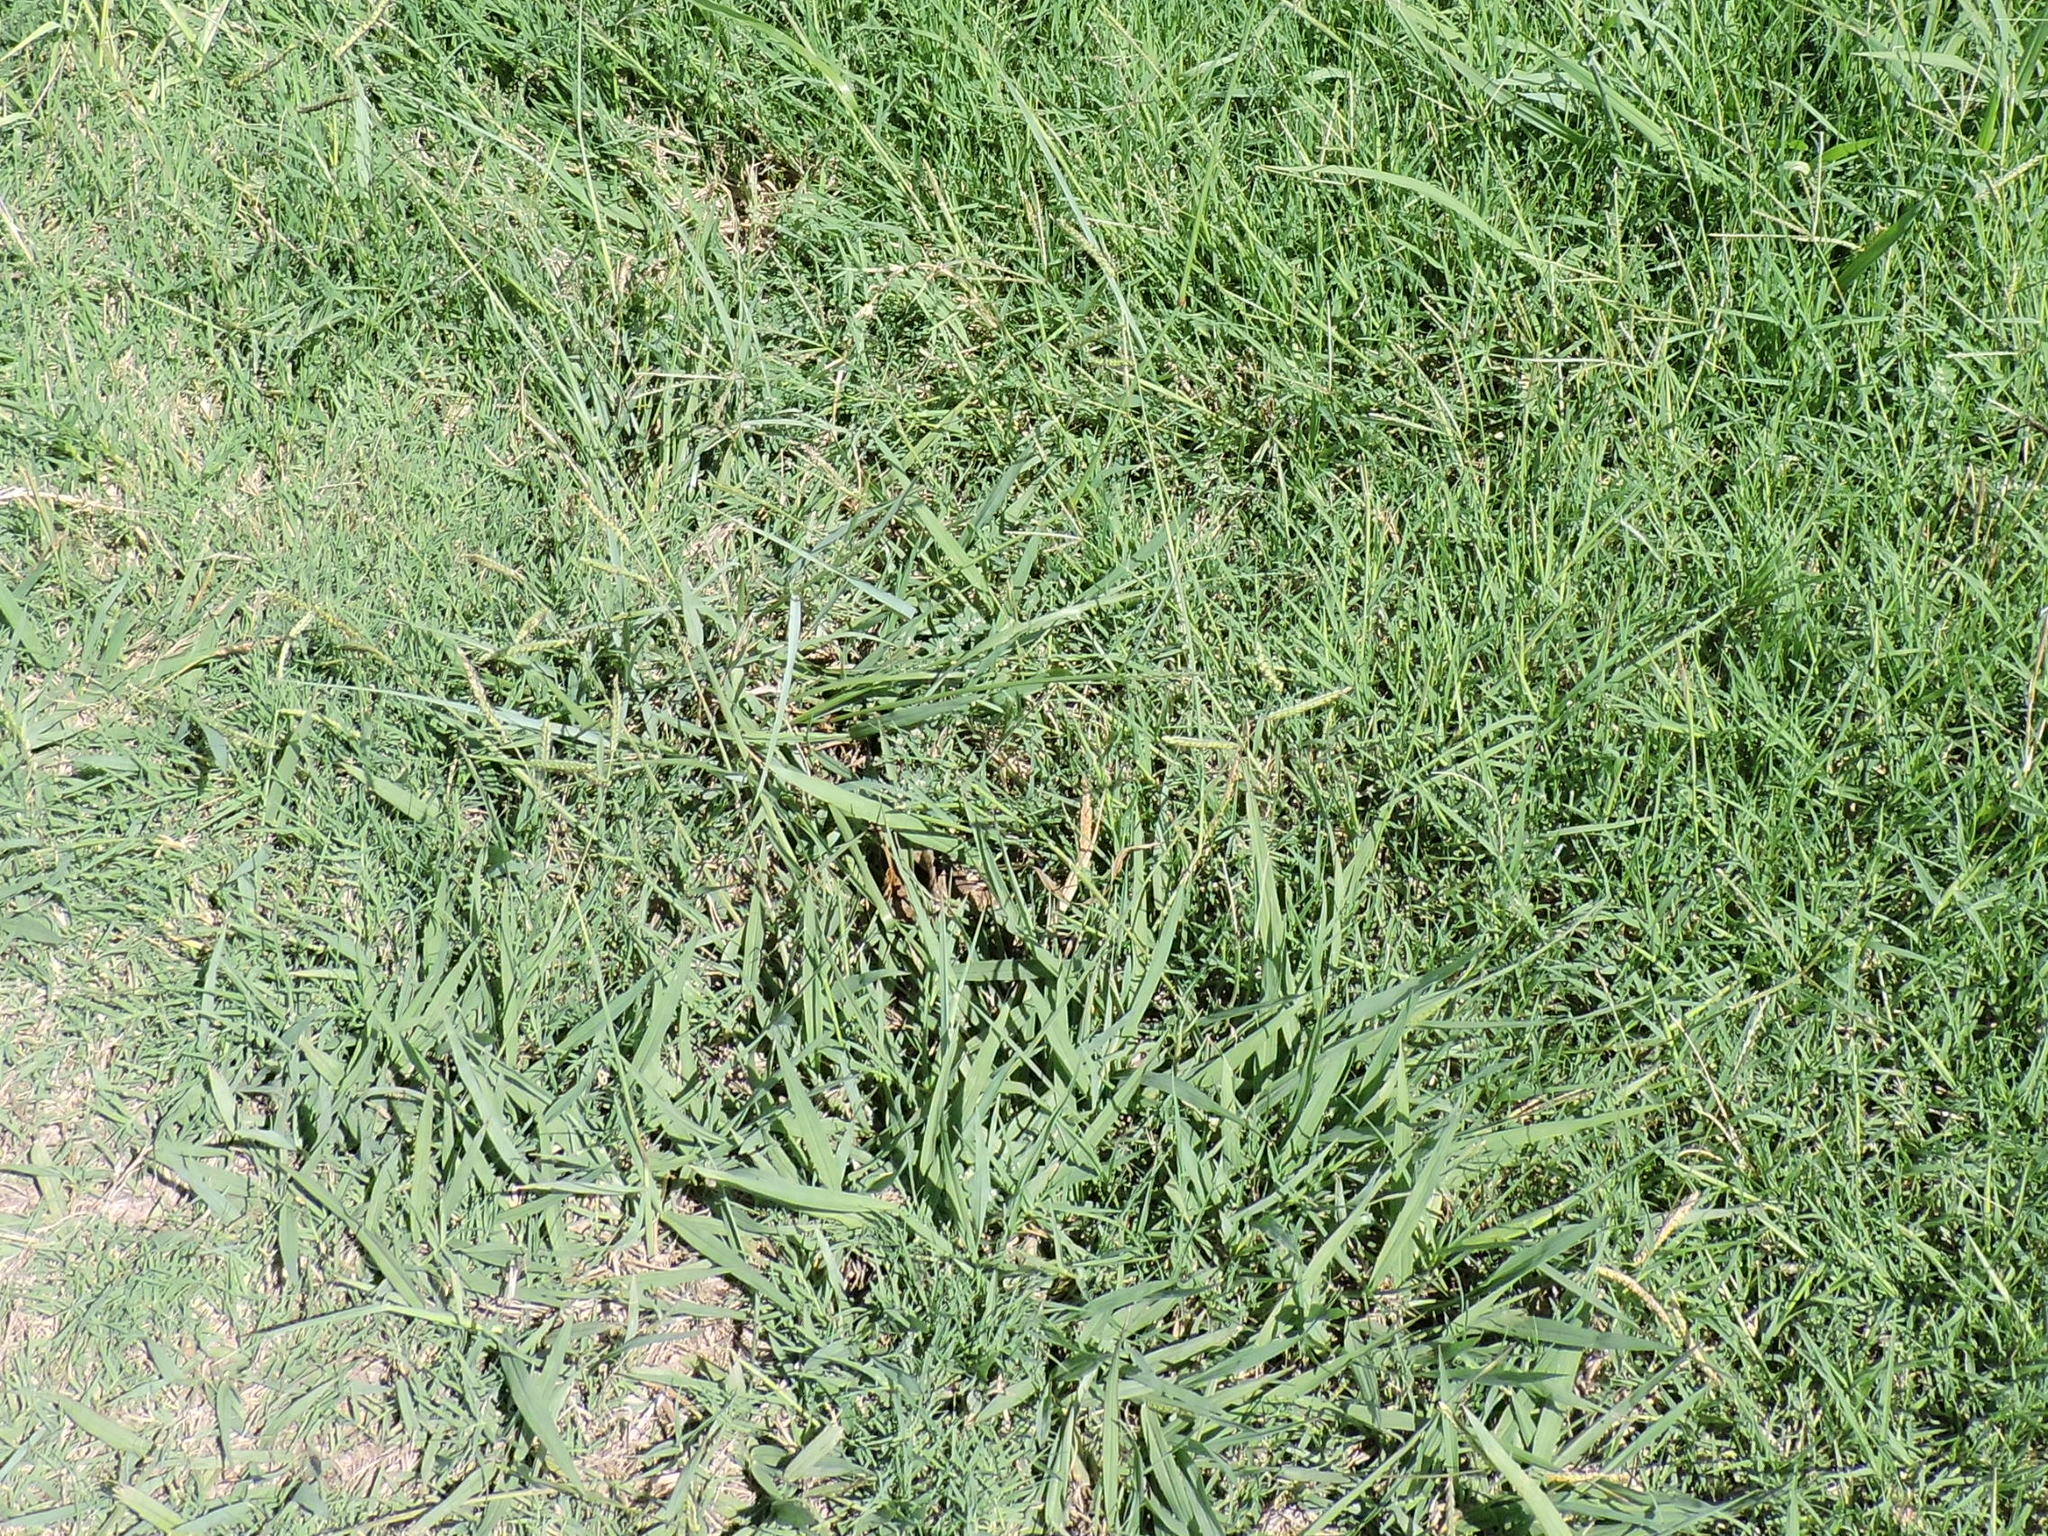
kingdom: Plantae
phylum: Tracheophyta
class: Liliopsida
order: Poales
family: Poaceae
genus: Tridens
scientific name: Tridens albescens
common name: White tridens
